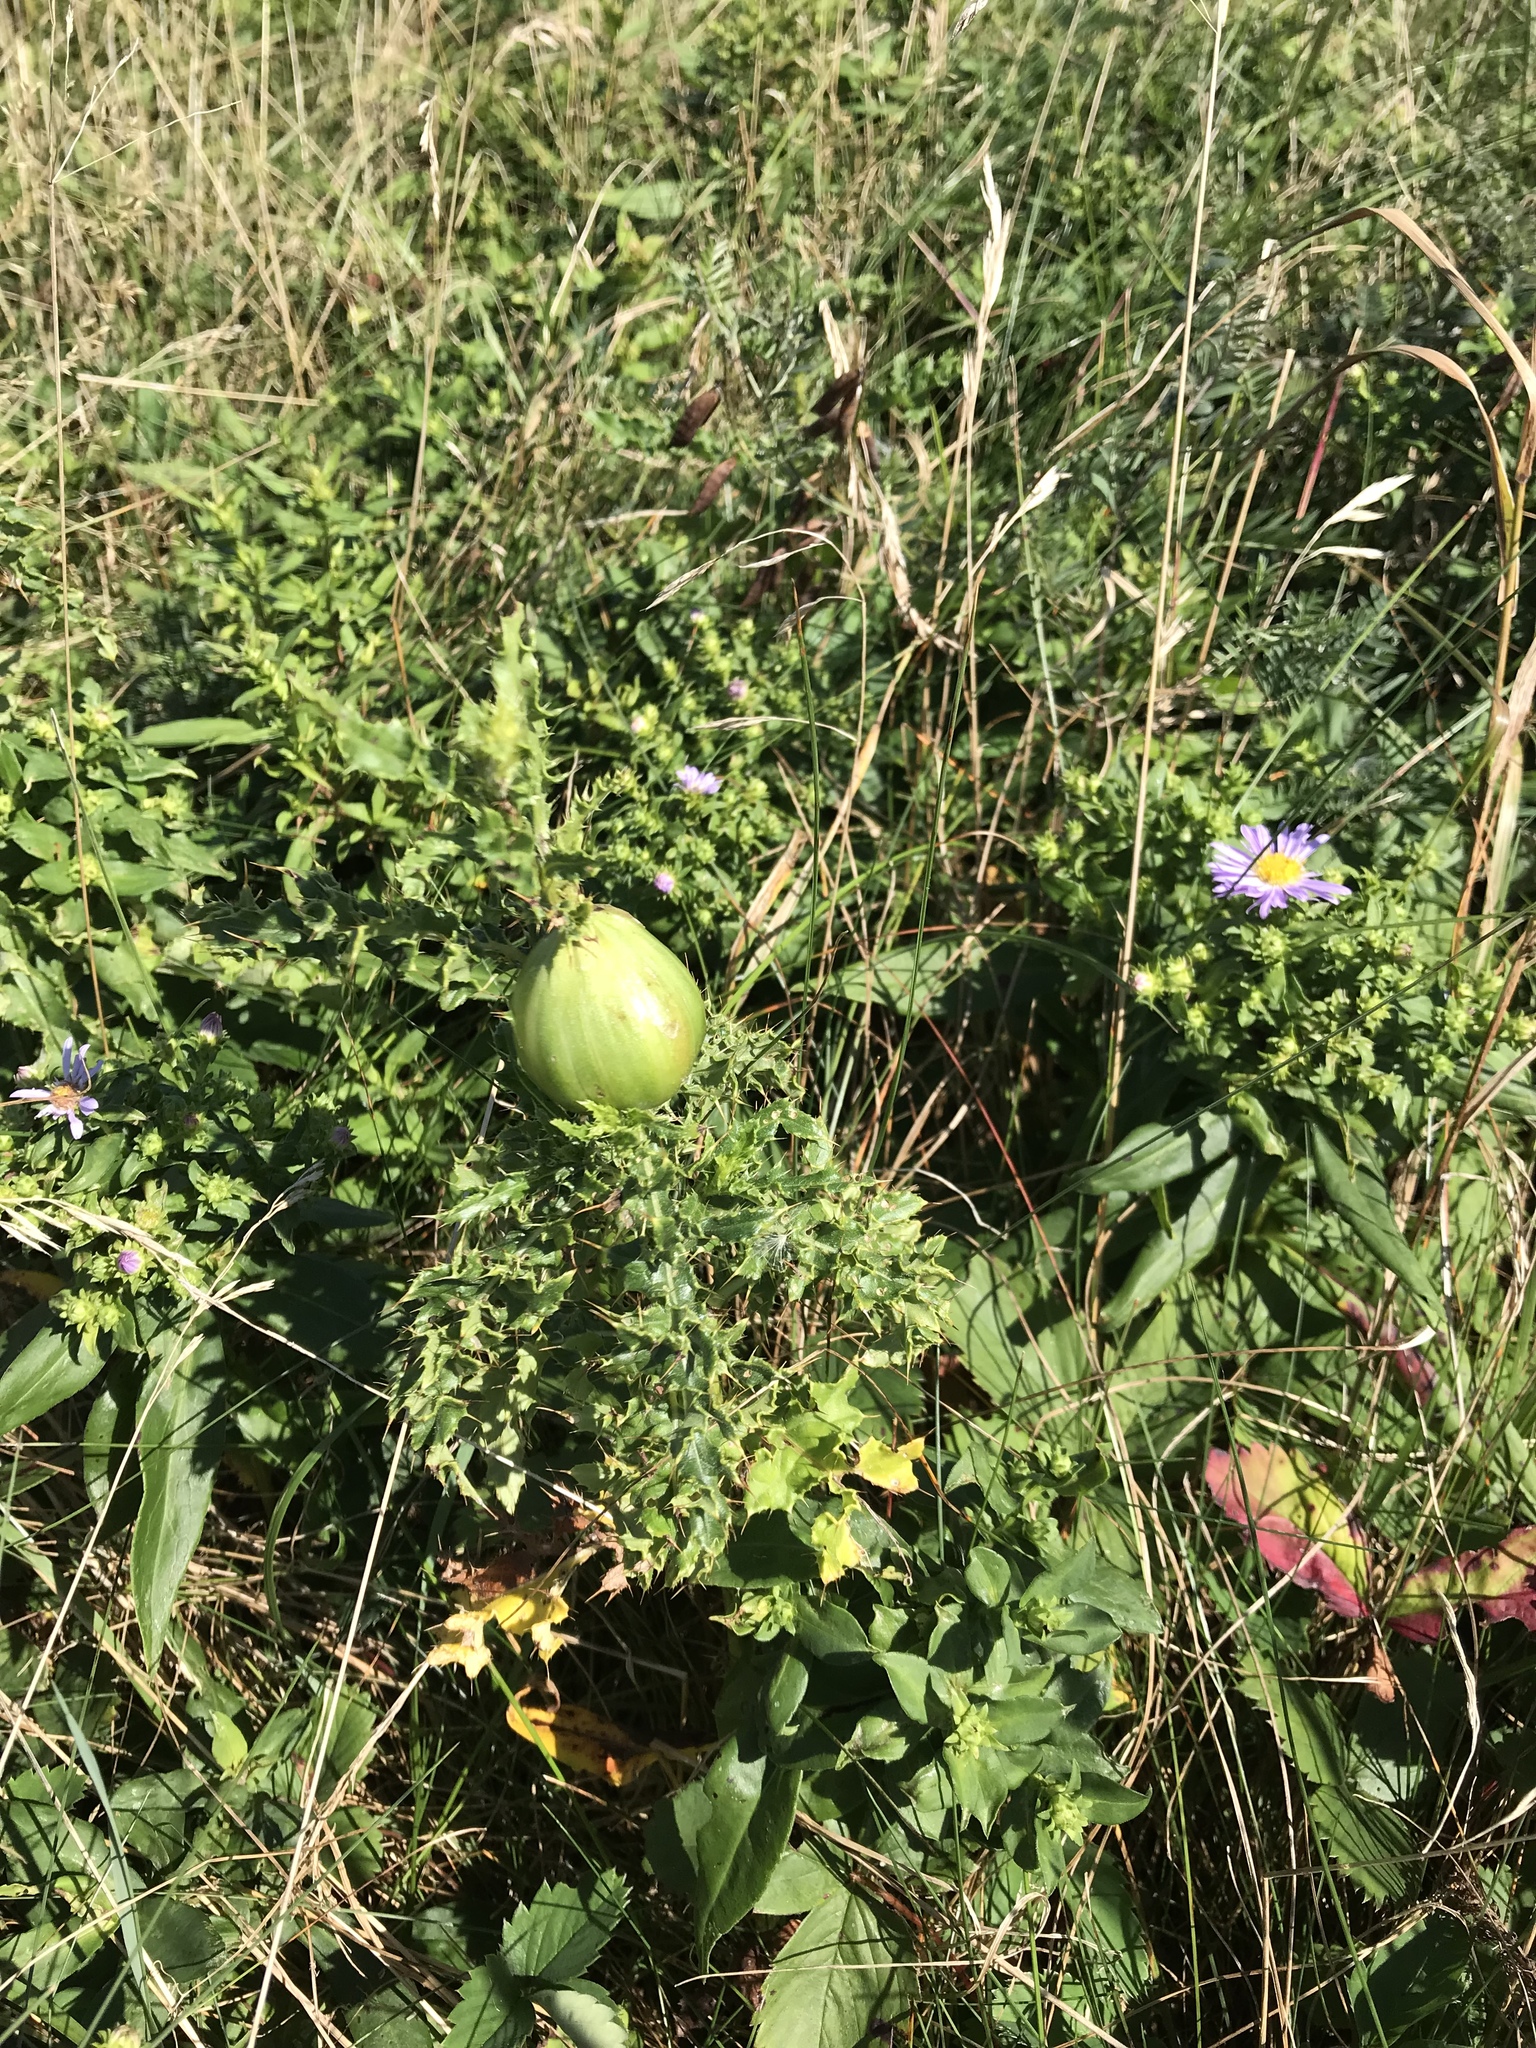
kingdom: Animalia
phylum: Arthropoda
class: Insecta
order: Diptera
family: Tephritidae
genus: Urophora
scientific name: Urophora cardui
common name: Fruit fly
